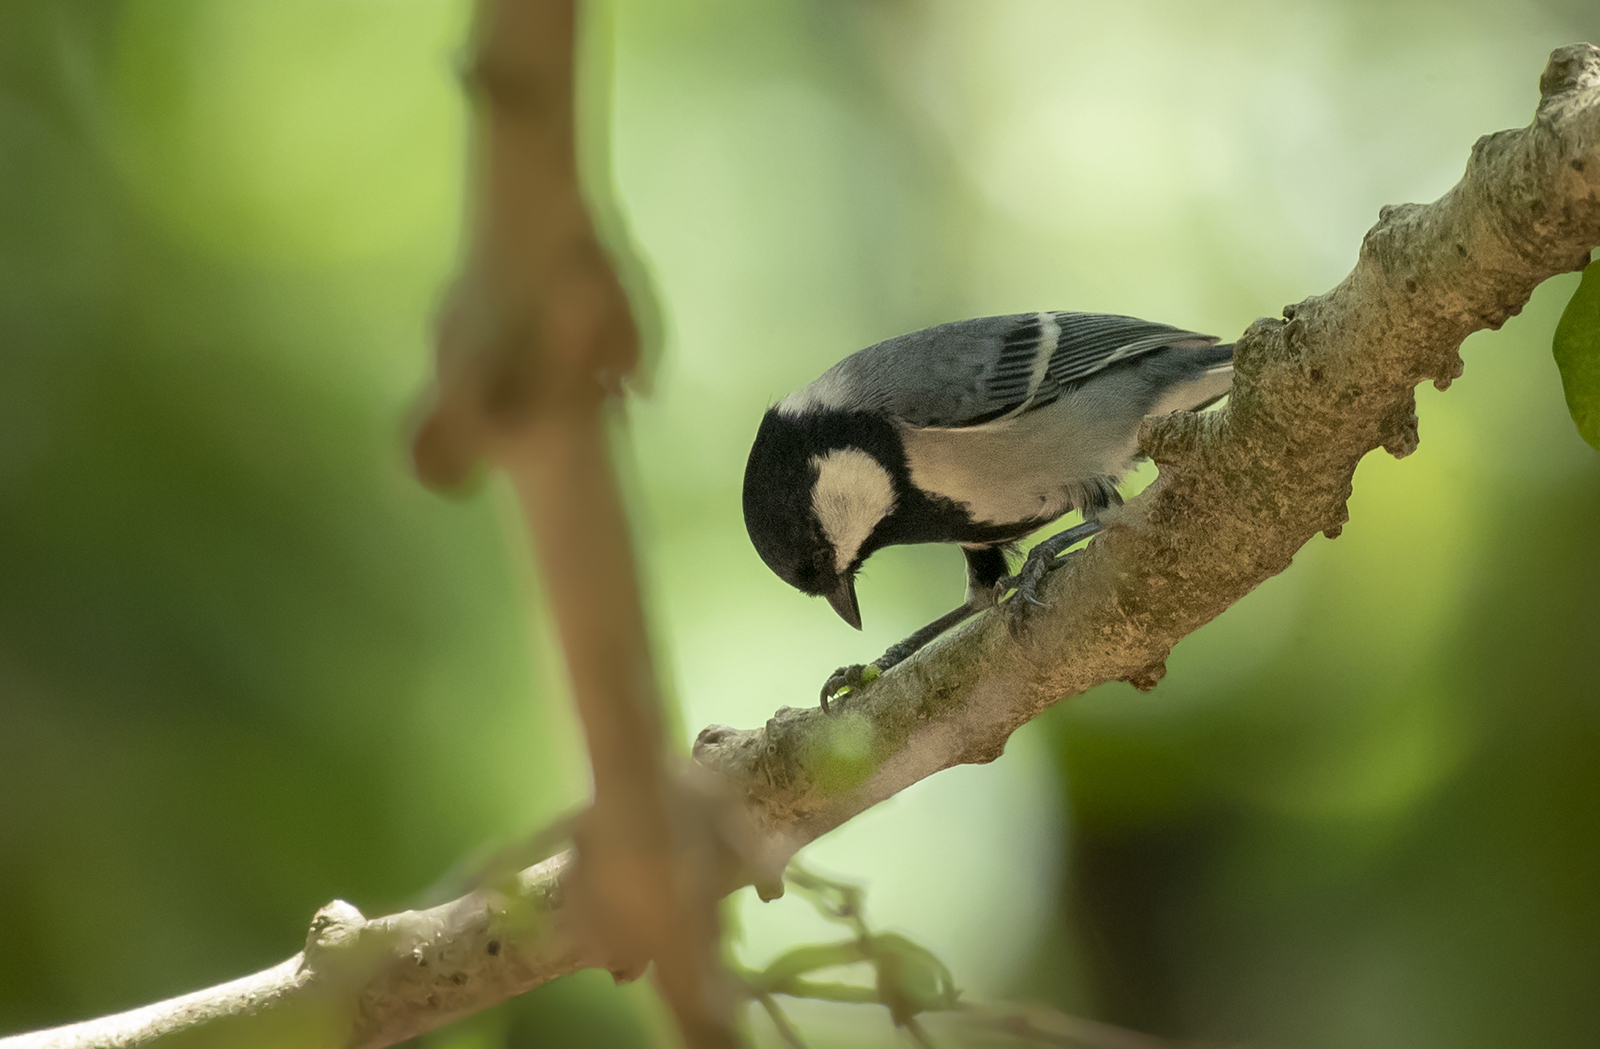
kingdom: Animalia
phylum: Chordata
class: Aves
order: Passeriformes
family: Paridae
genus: Parus
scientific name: Parus cinereus
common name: Cinereous tit
